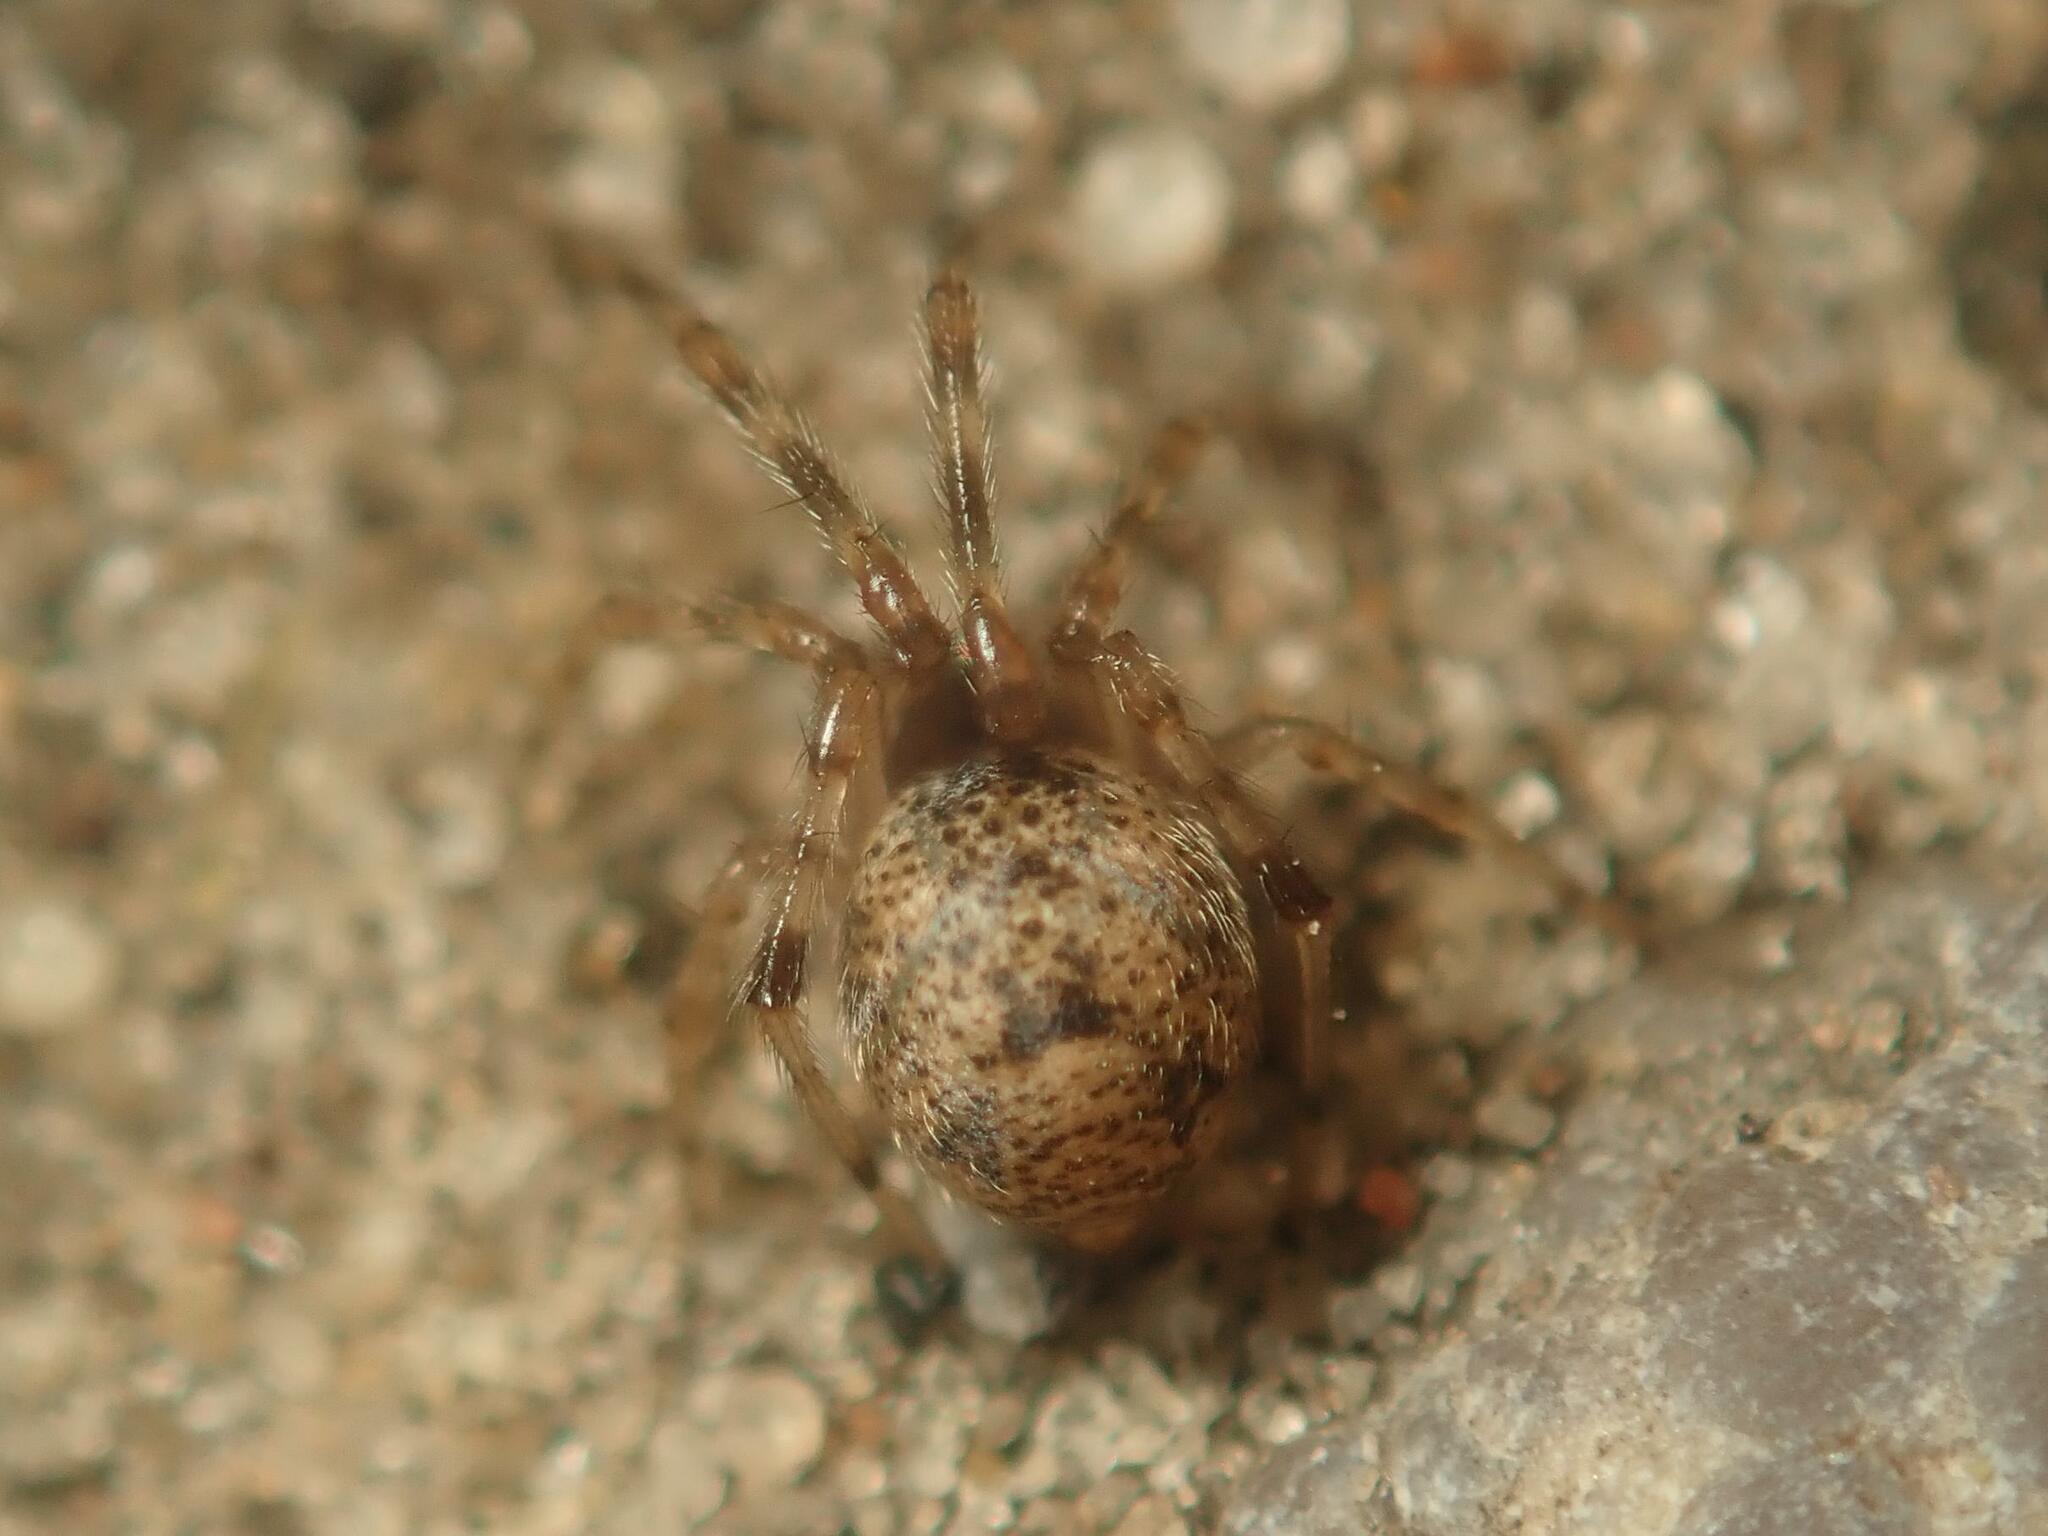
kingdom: Animalia
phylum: Arthropoda
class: Arachnida
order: Araneae
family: Theridiidae
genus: Parasteatoda
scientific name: Parasteatoda tepidariorum
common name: Common house spider
